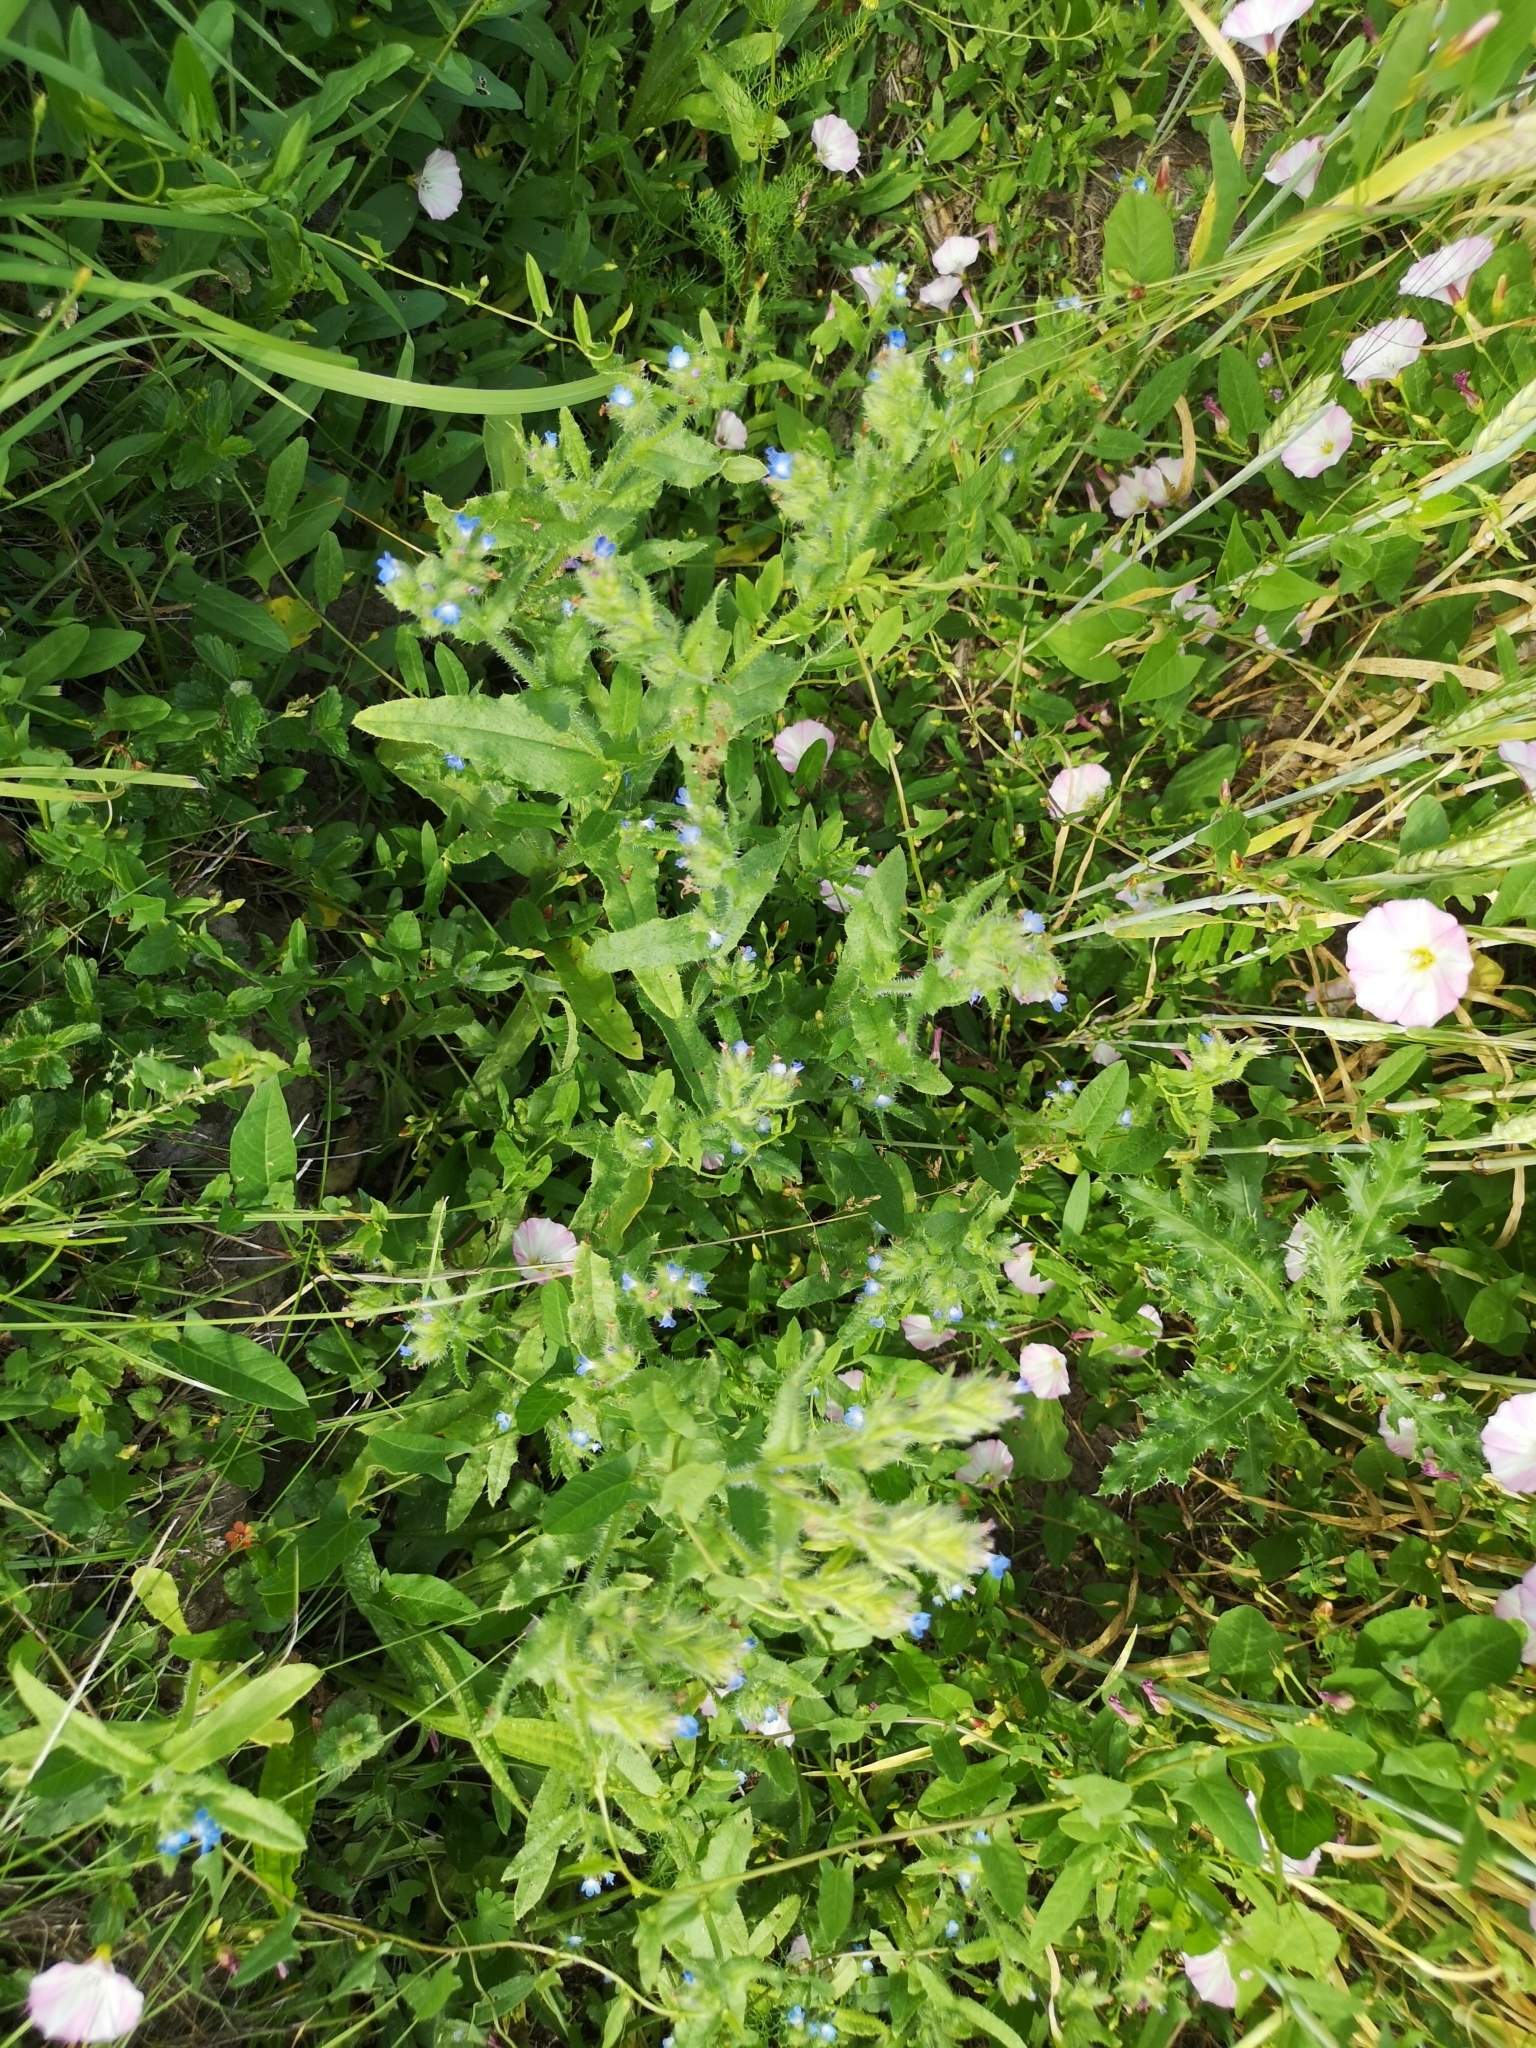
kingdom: Plantae
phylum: Tracheophyta
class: Magnoliopsida
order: Boraginales
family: Boraginaceae
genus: Lycopsis
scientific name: Lycopsis arvensis
